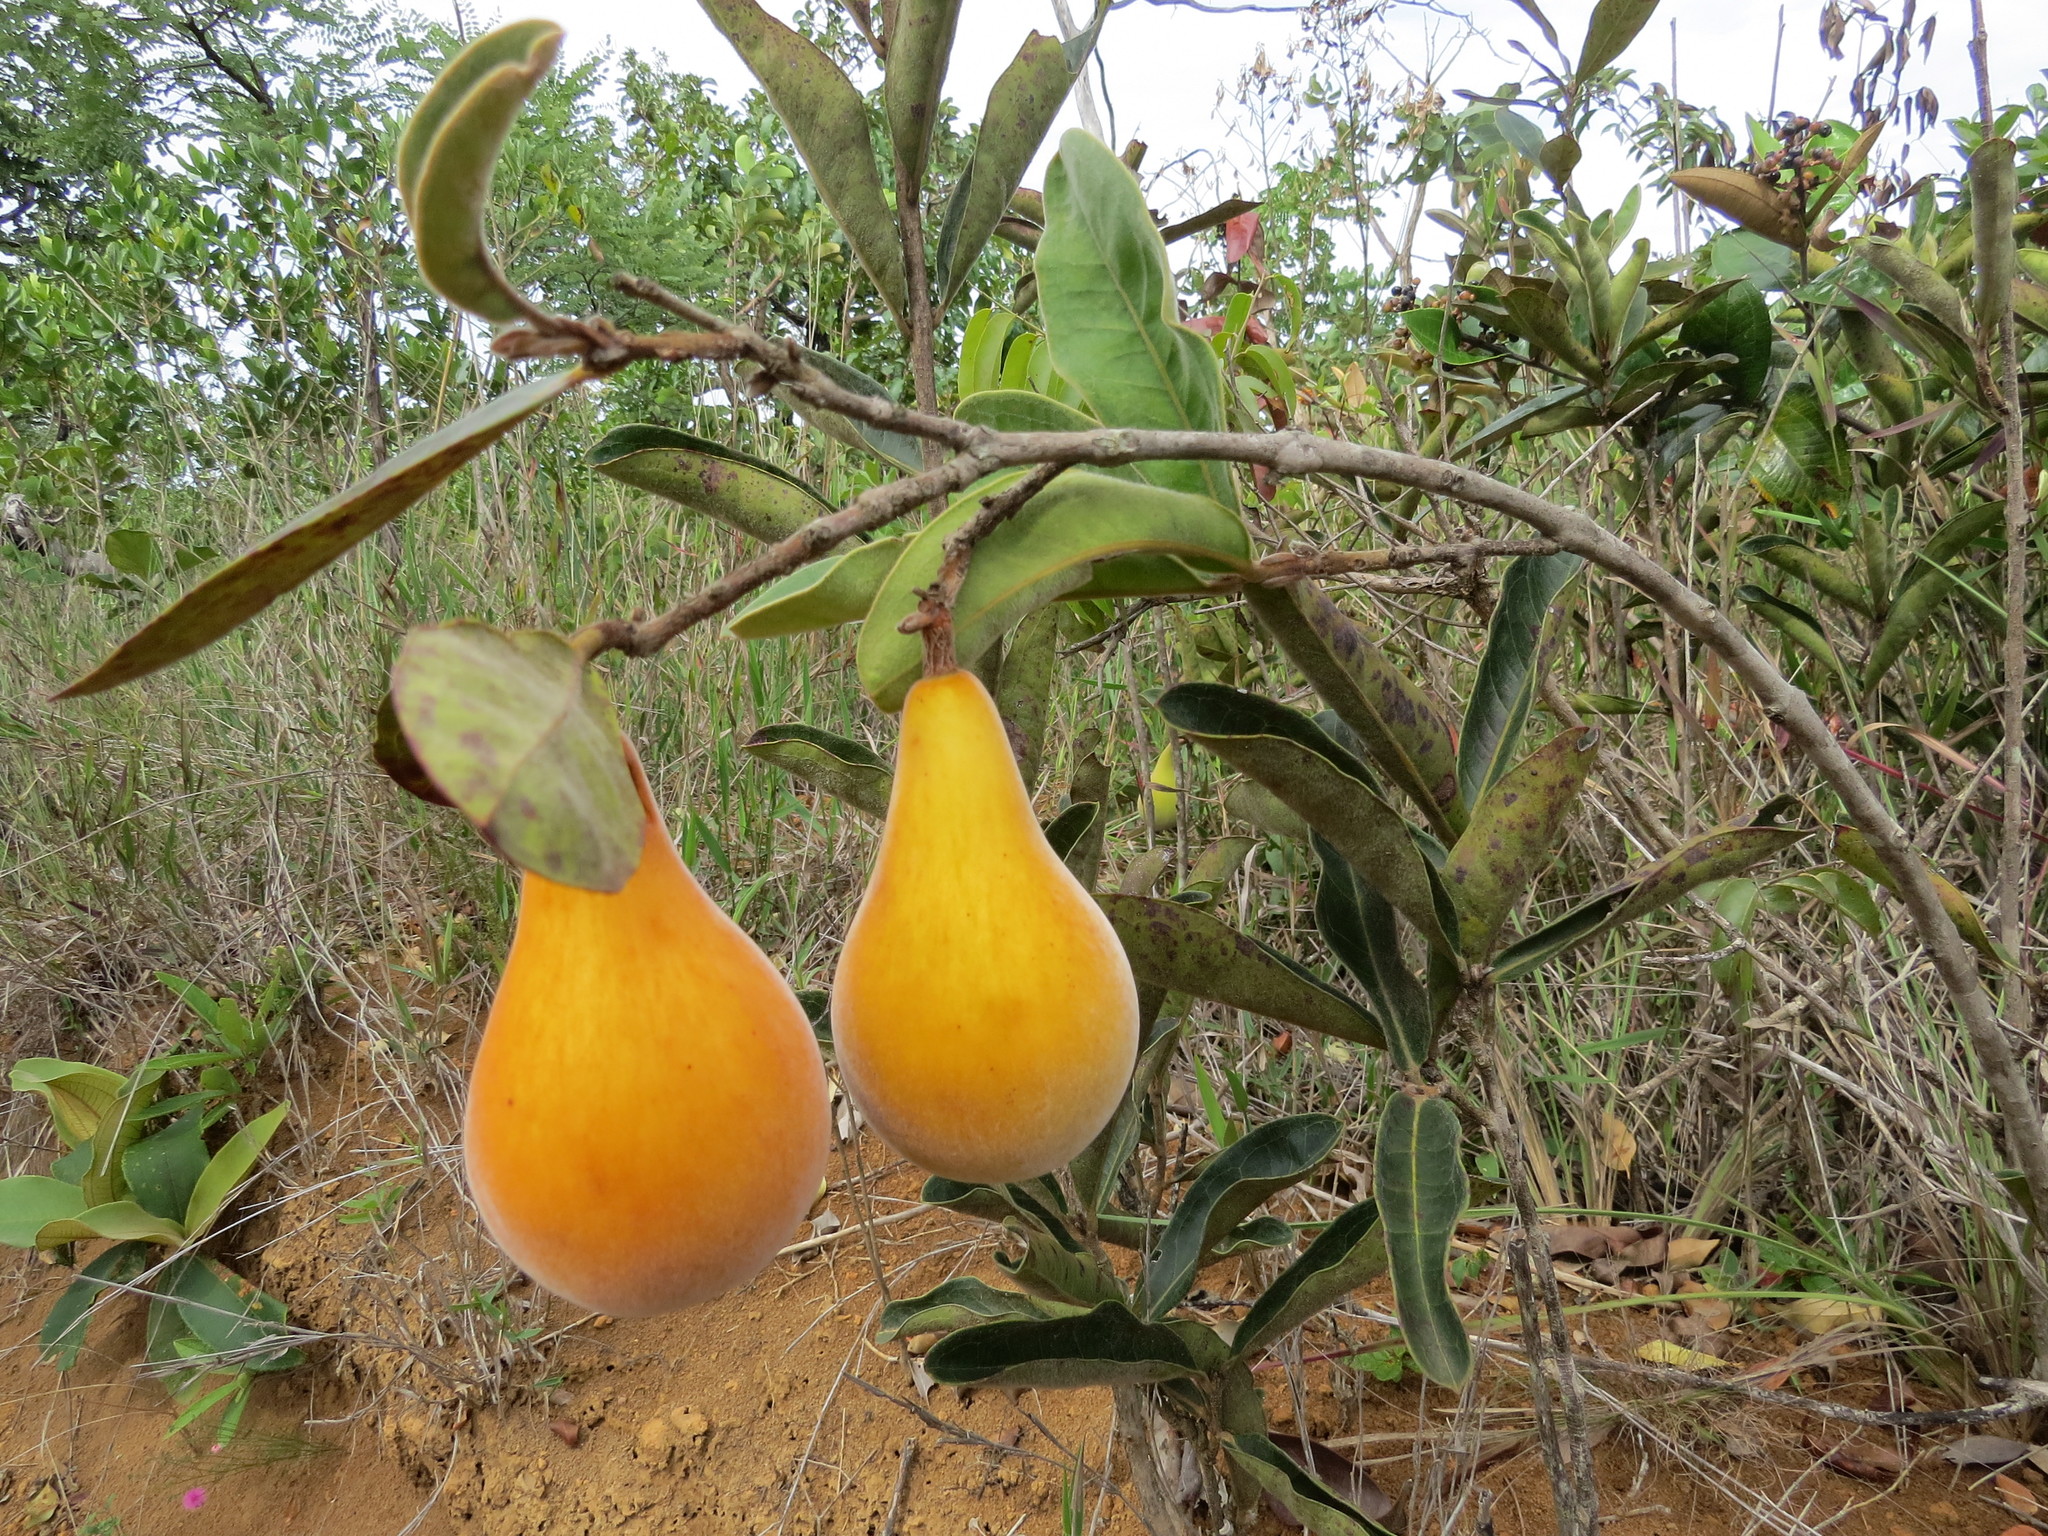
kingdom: Plantae
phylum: Tracheophyta
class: Magnoliopsida
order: Myrtales
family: Myrtaceae
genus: Eugenia
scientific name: Eugenia klotzschiana
